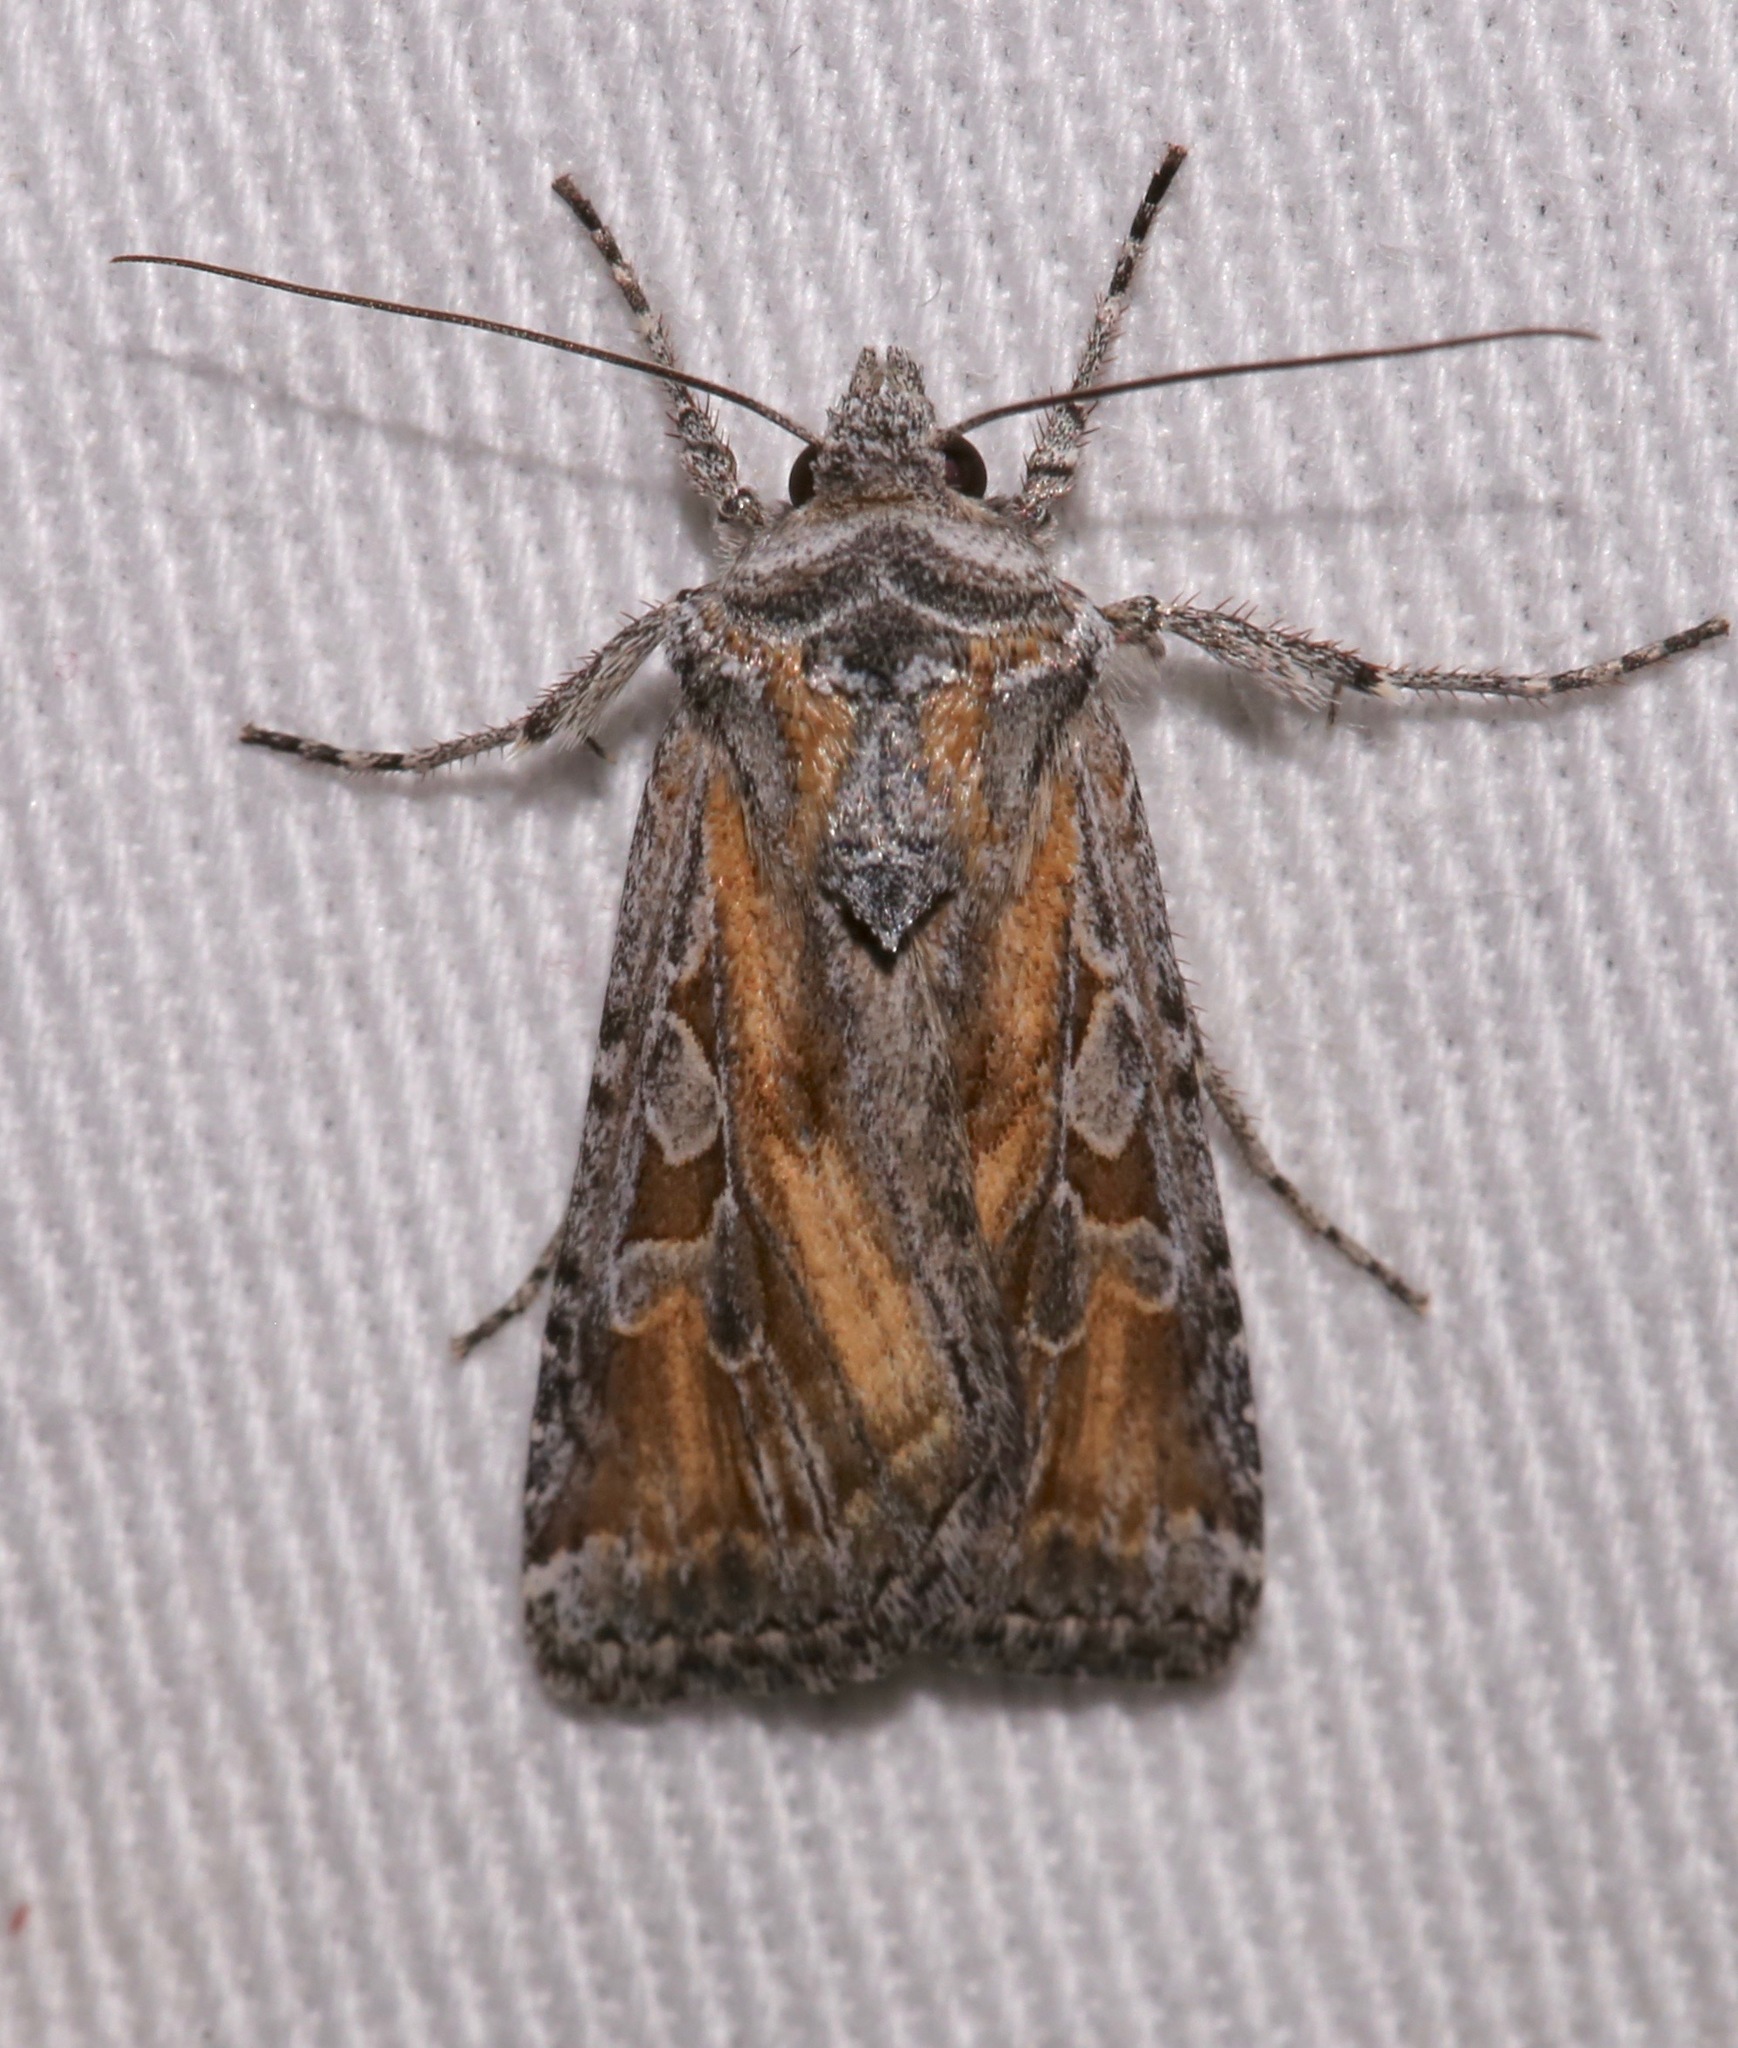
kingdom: Animalia
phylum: Arthropoda
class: Insecta
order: Lepidoptera
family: Noctuidae
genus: Euxoa
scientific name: Euxoa pluralis
